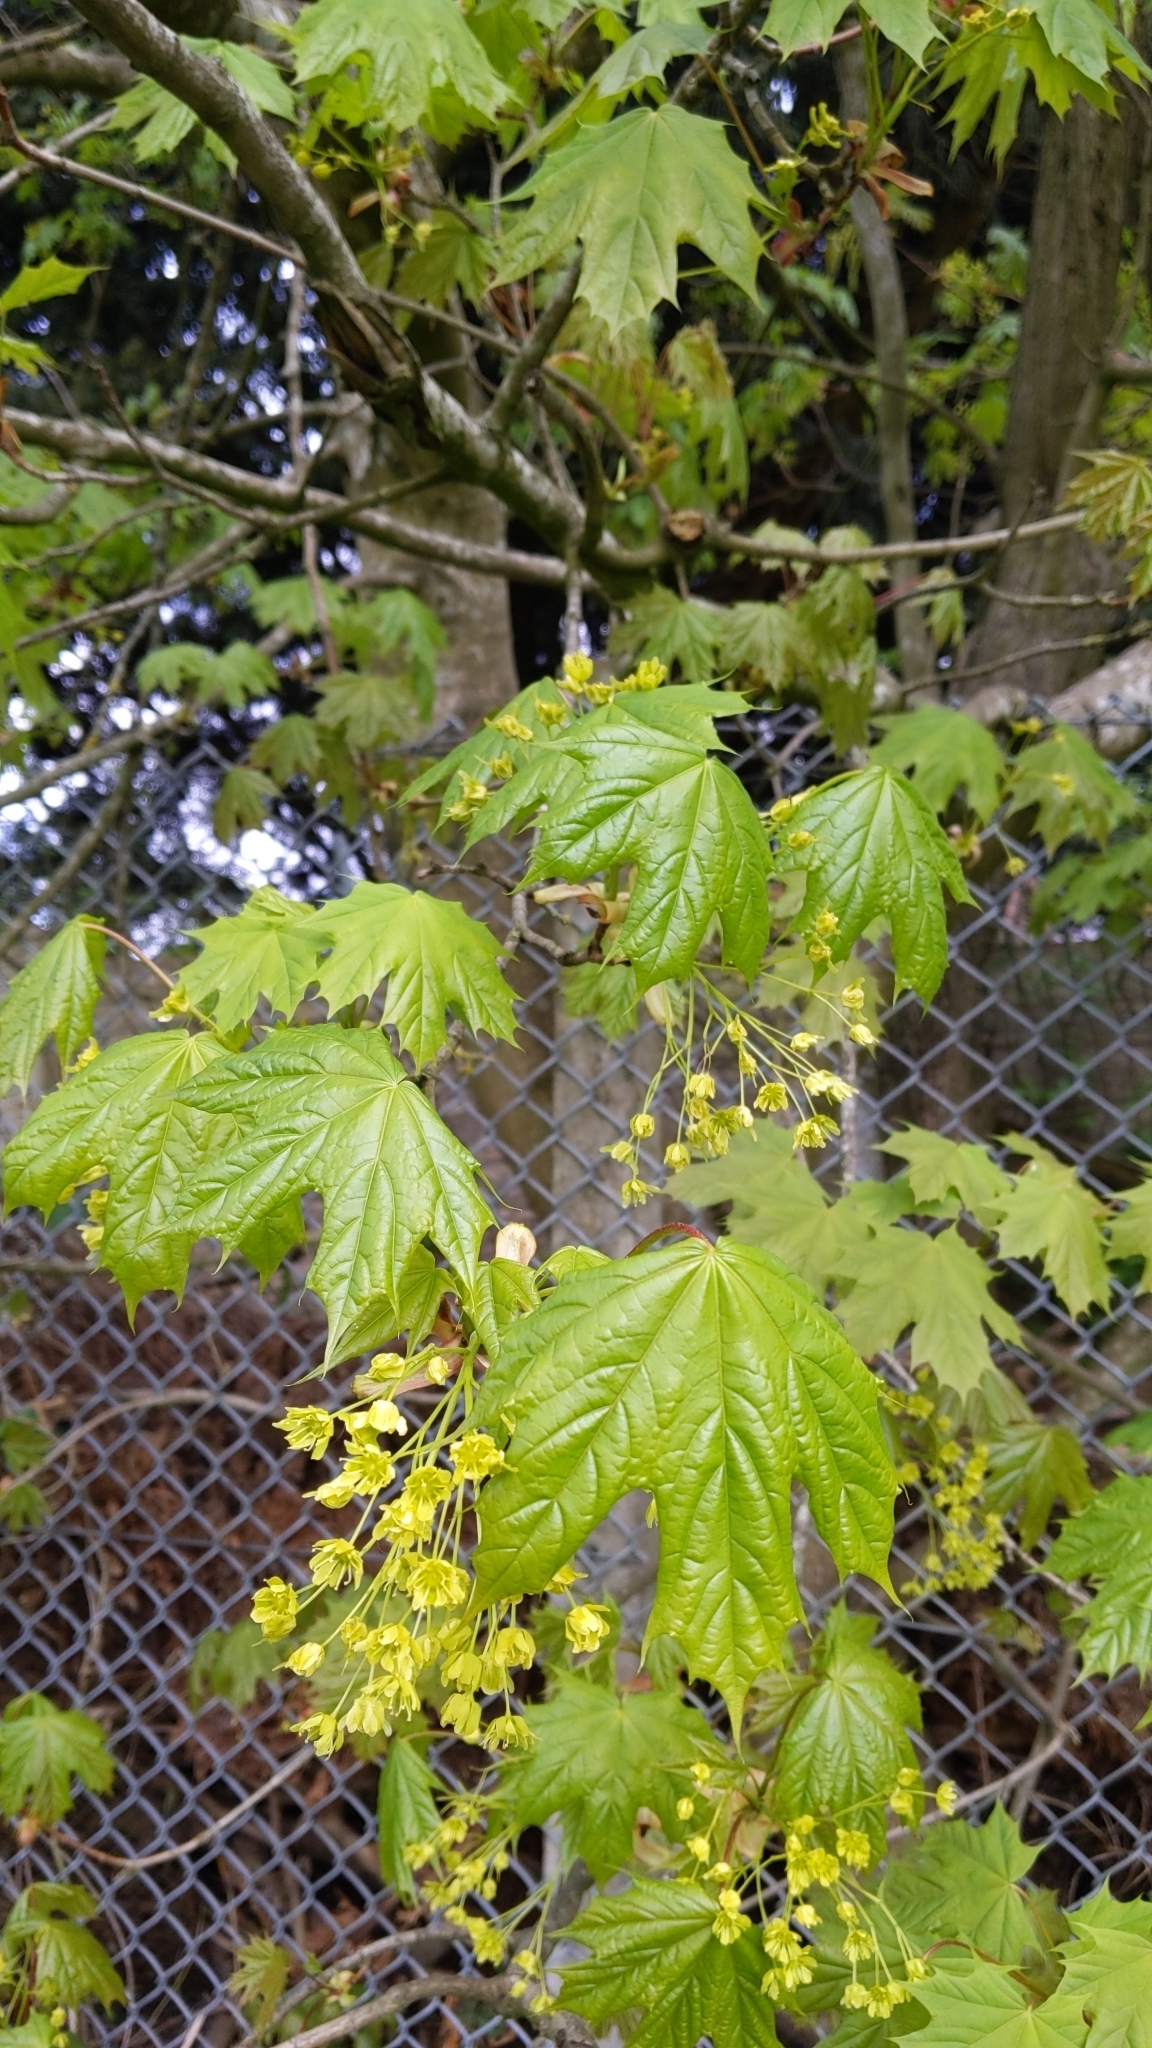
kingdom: Plantae
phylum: Tracheophyta
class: Magnoliopsida
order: Sapindales
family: Sapindaceae
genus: Acer
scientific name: Acer platanoides
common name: Norway maple
